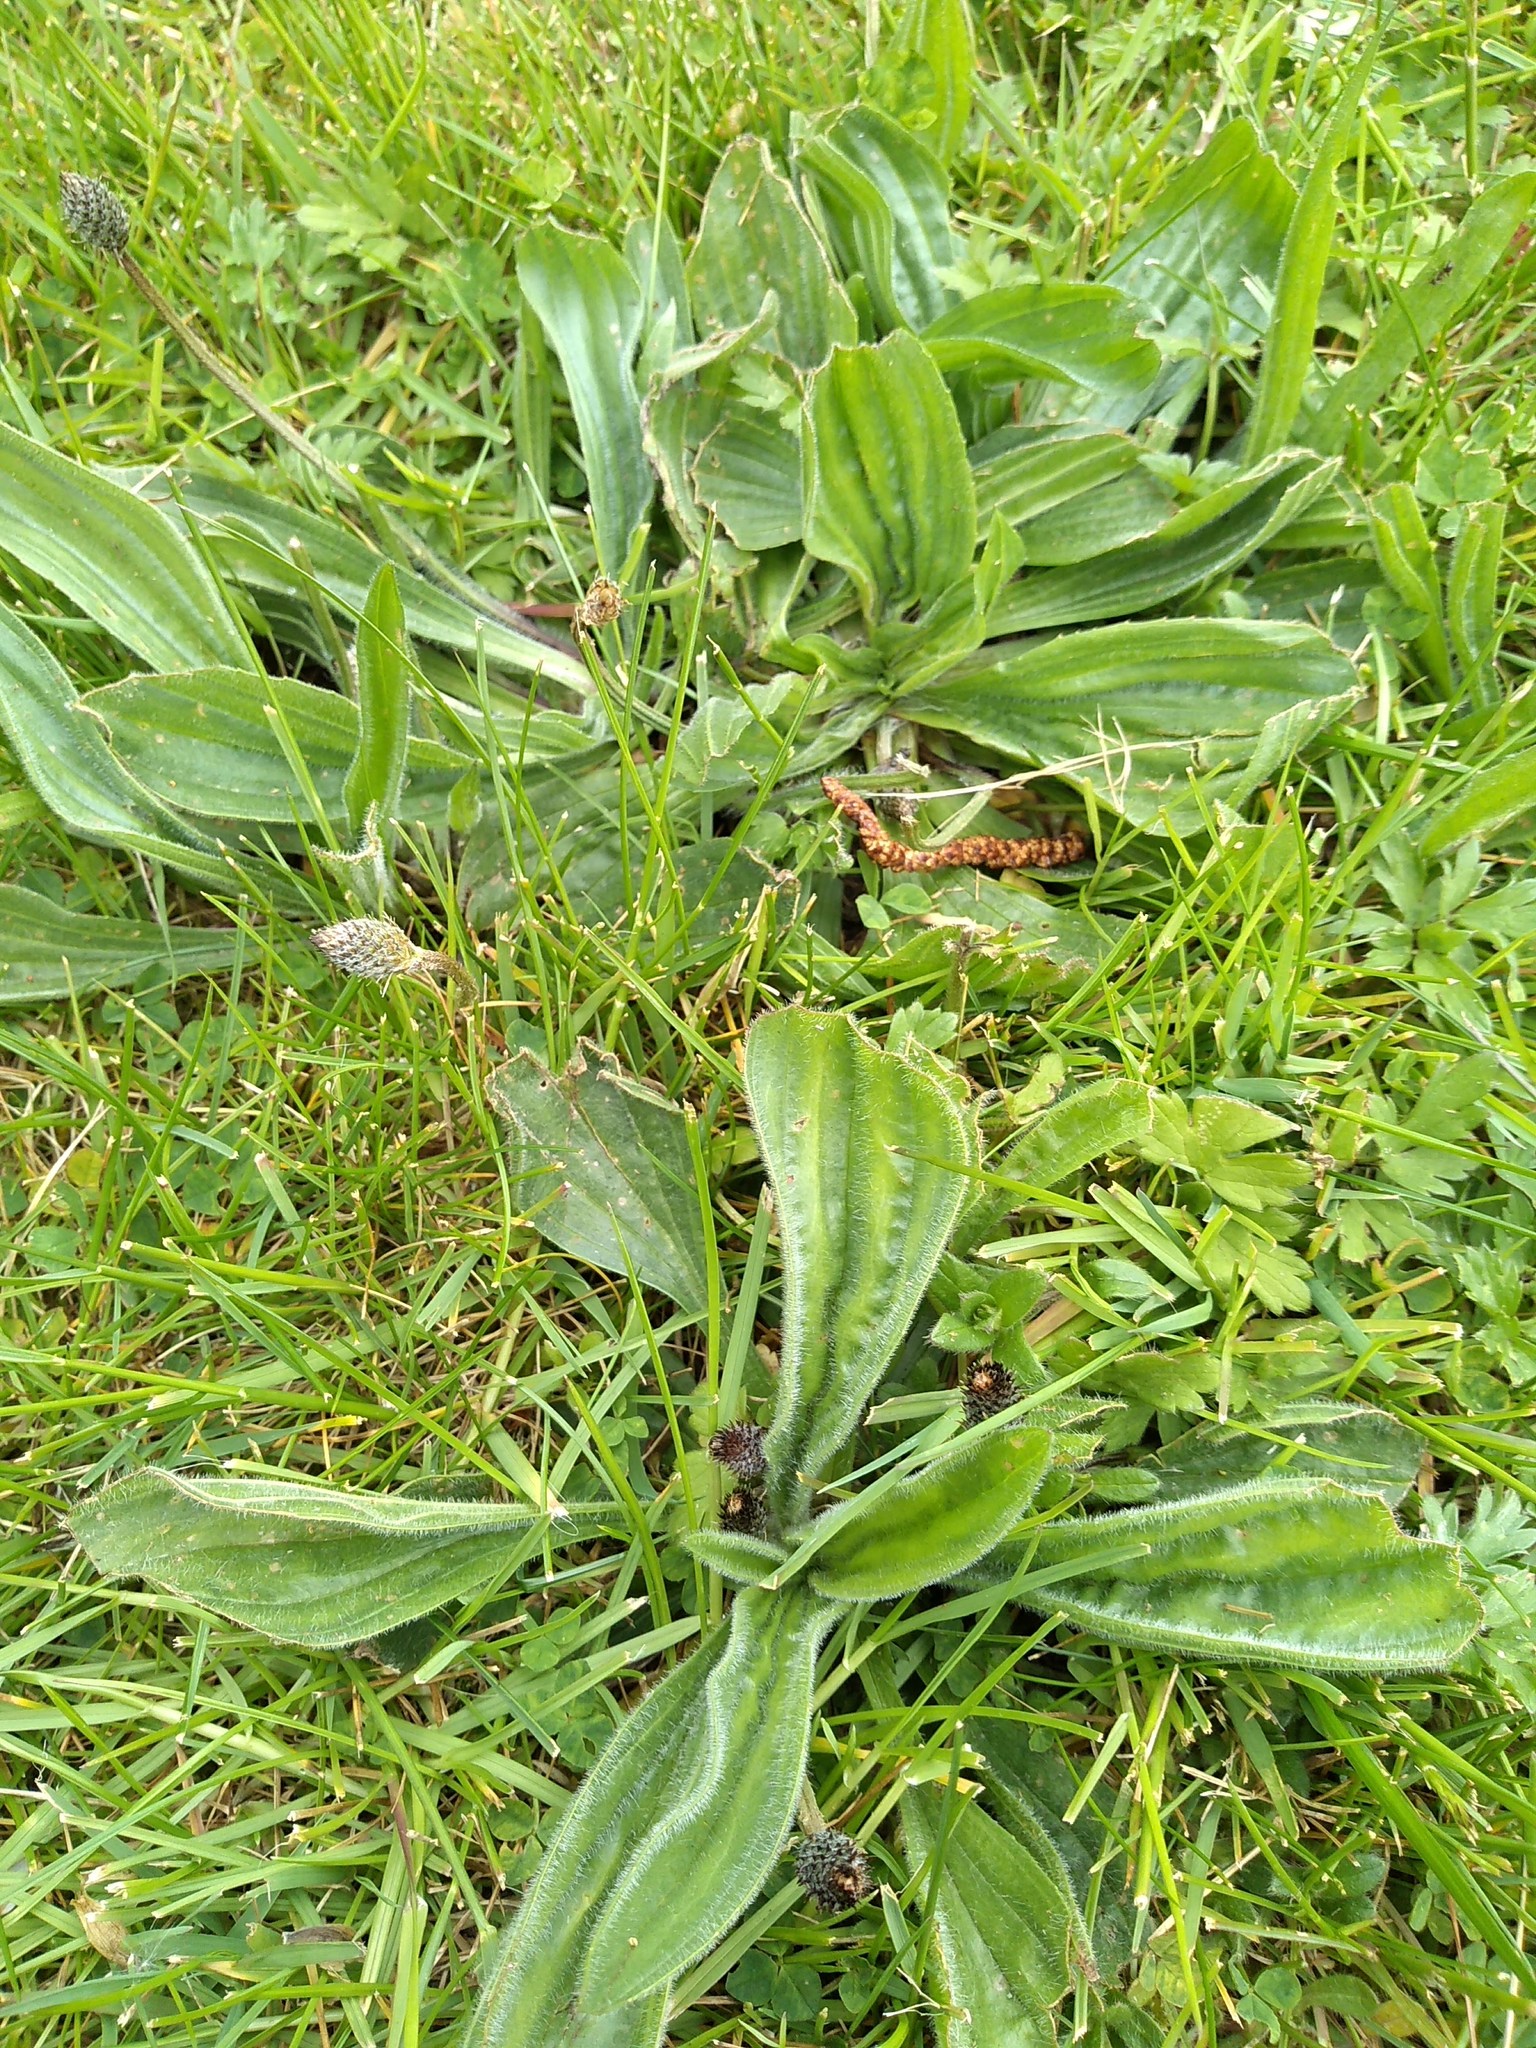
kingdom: Plantae
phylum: Tracheophyta
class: Magnoliopsida
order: Lamiales
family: Plantaginaceae
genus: Plantago
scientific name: Plantago lanceolata
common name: Ribwort plantain
